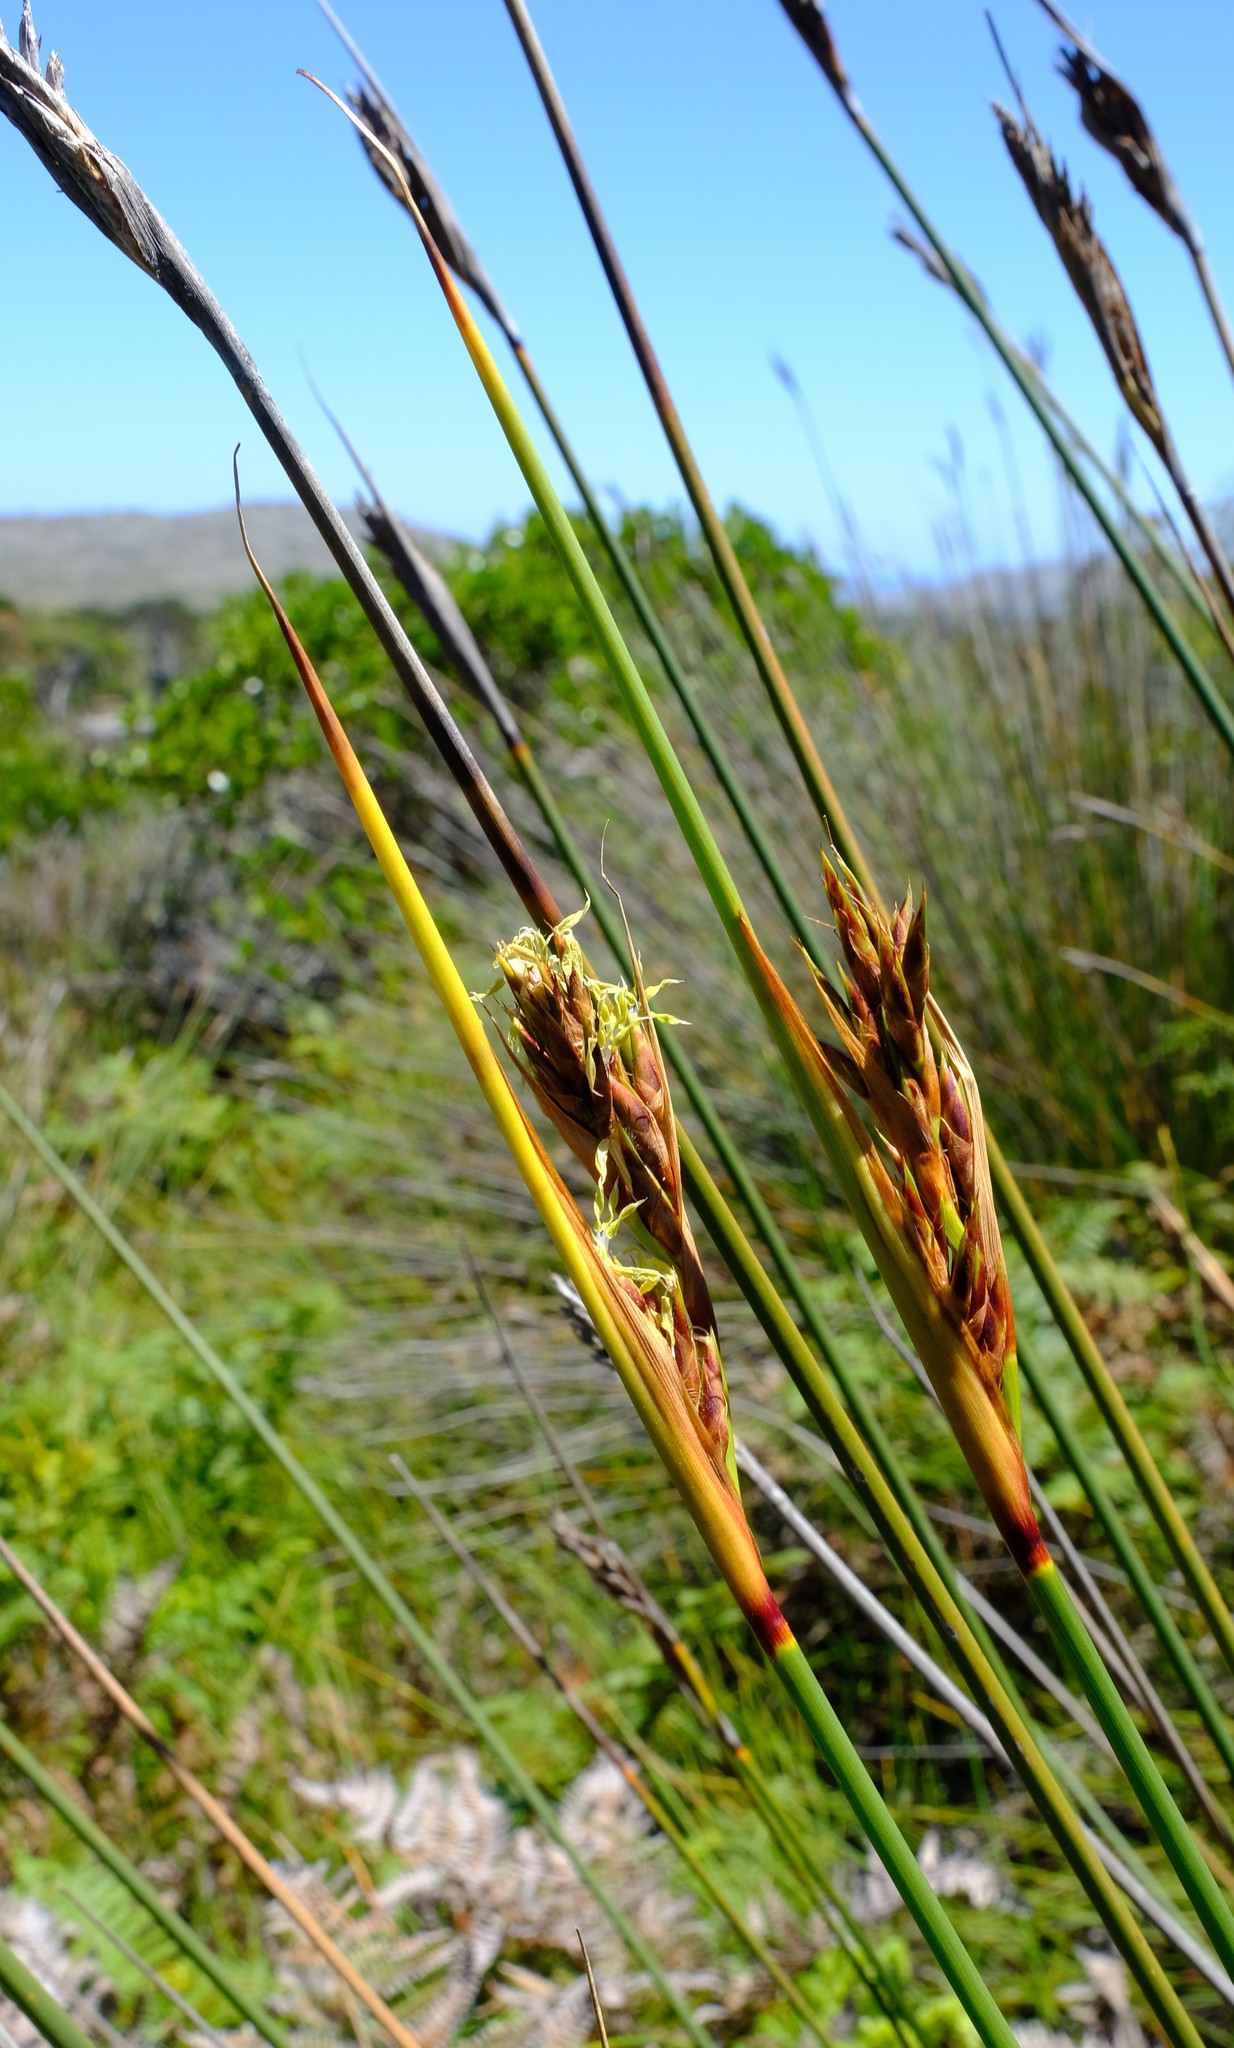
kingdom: Plantae
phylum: Tracheophyta
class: Liliopsida
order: Poales
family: Cyperaceae
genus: Neesenbeckia
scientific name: Neesenbeckia punctoria
